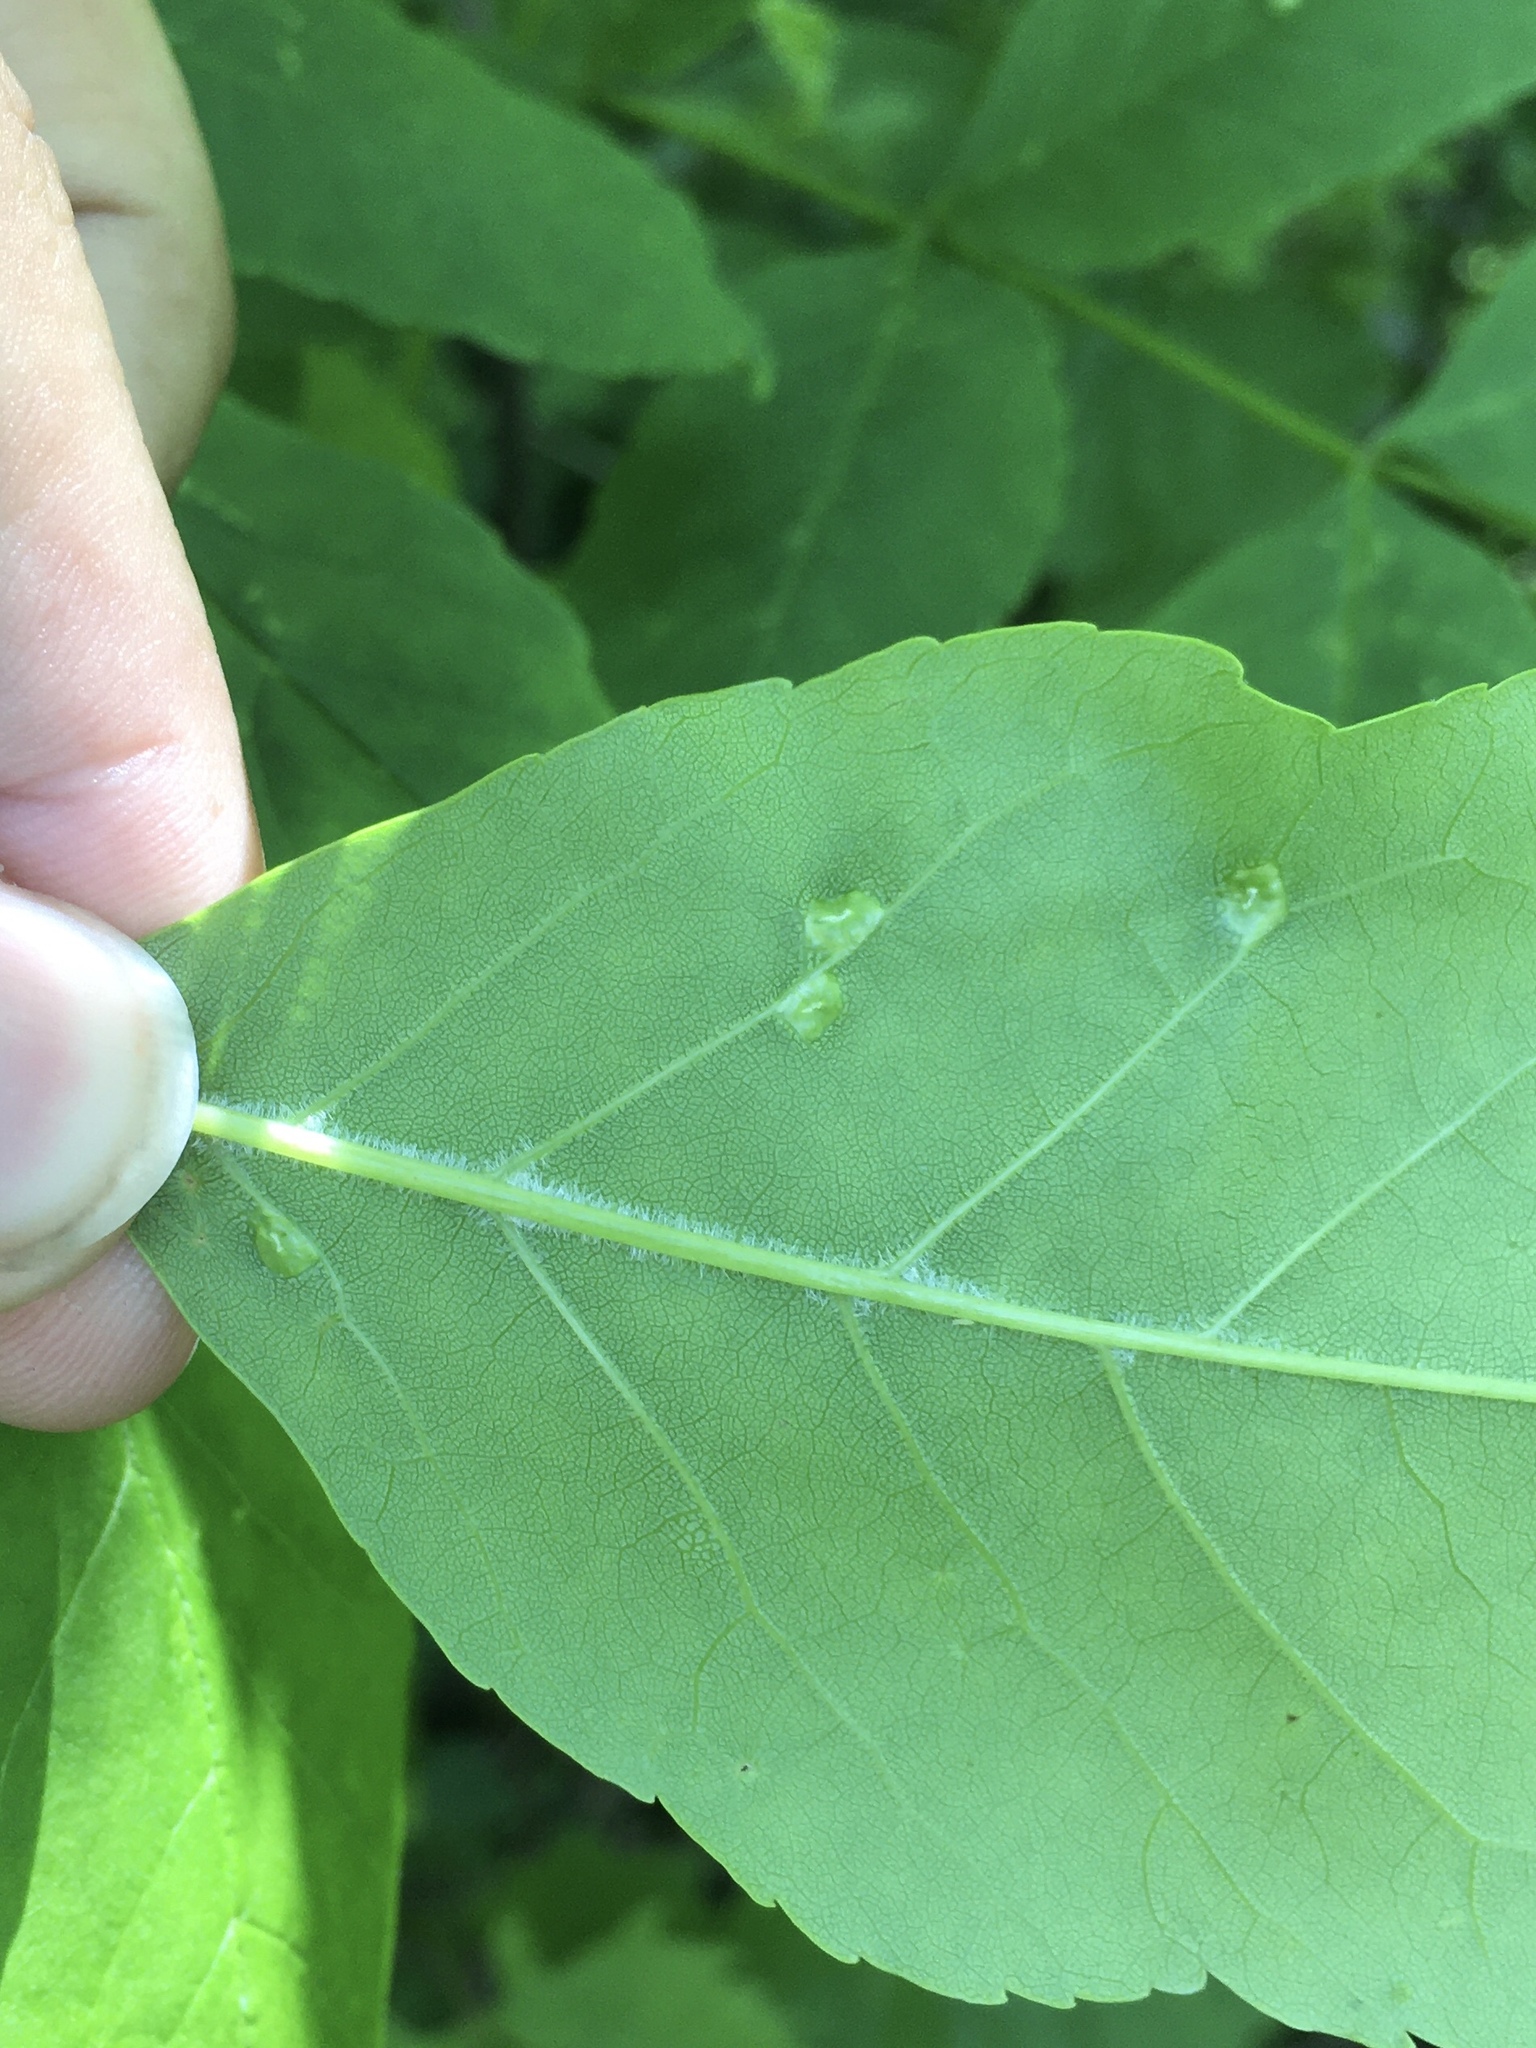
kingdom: Animalia
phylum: Arthropoda
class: Arachnida
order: Trombidiformes
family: Eriophyidae
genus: Aceria
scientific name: Aceria fraxinicola
